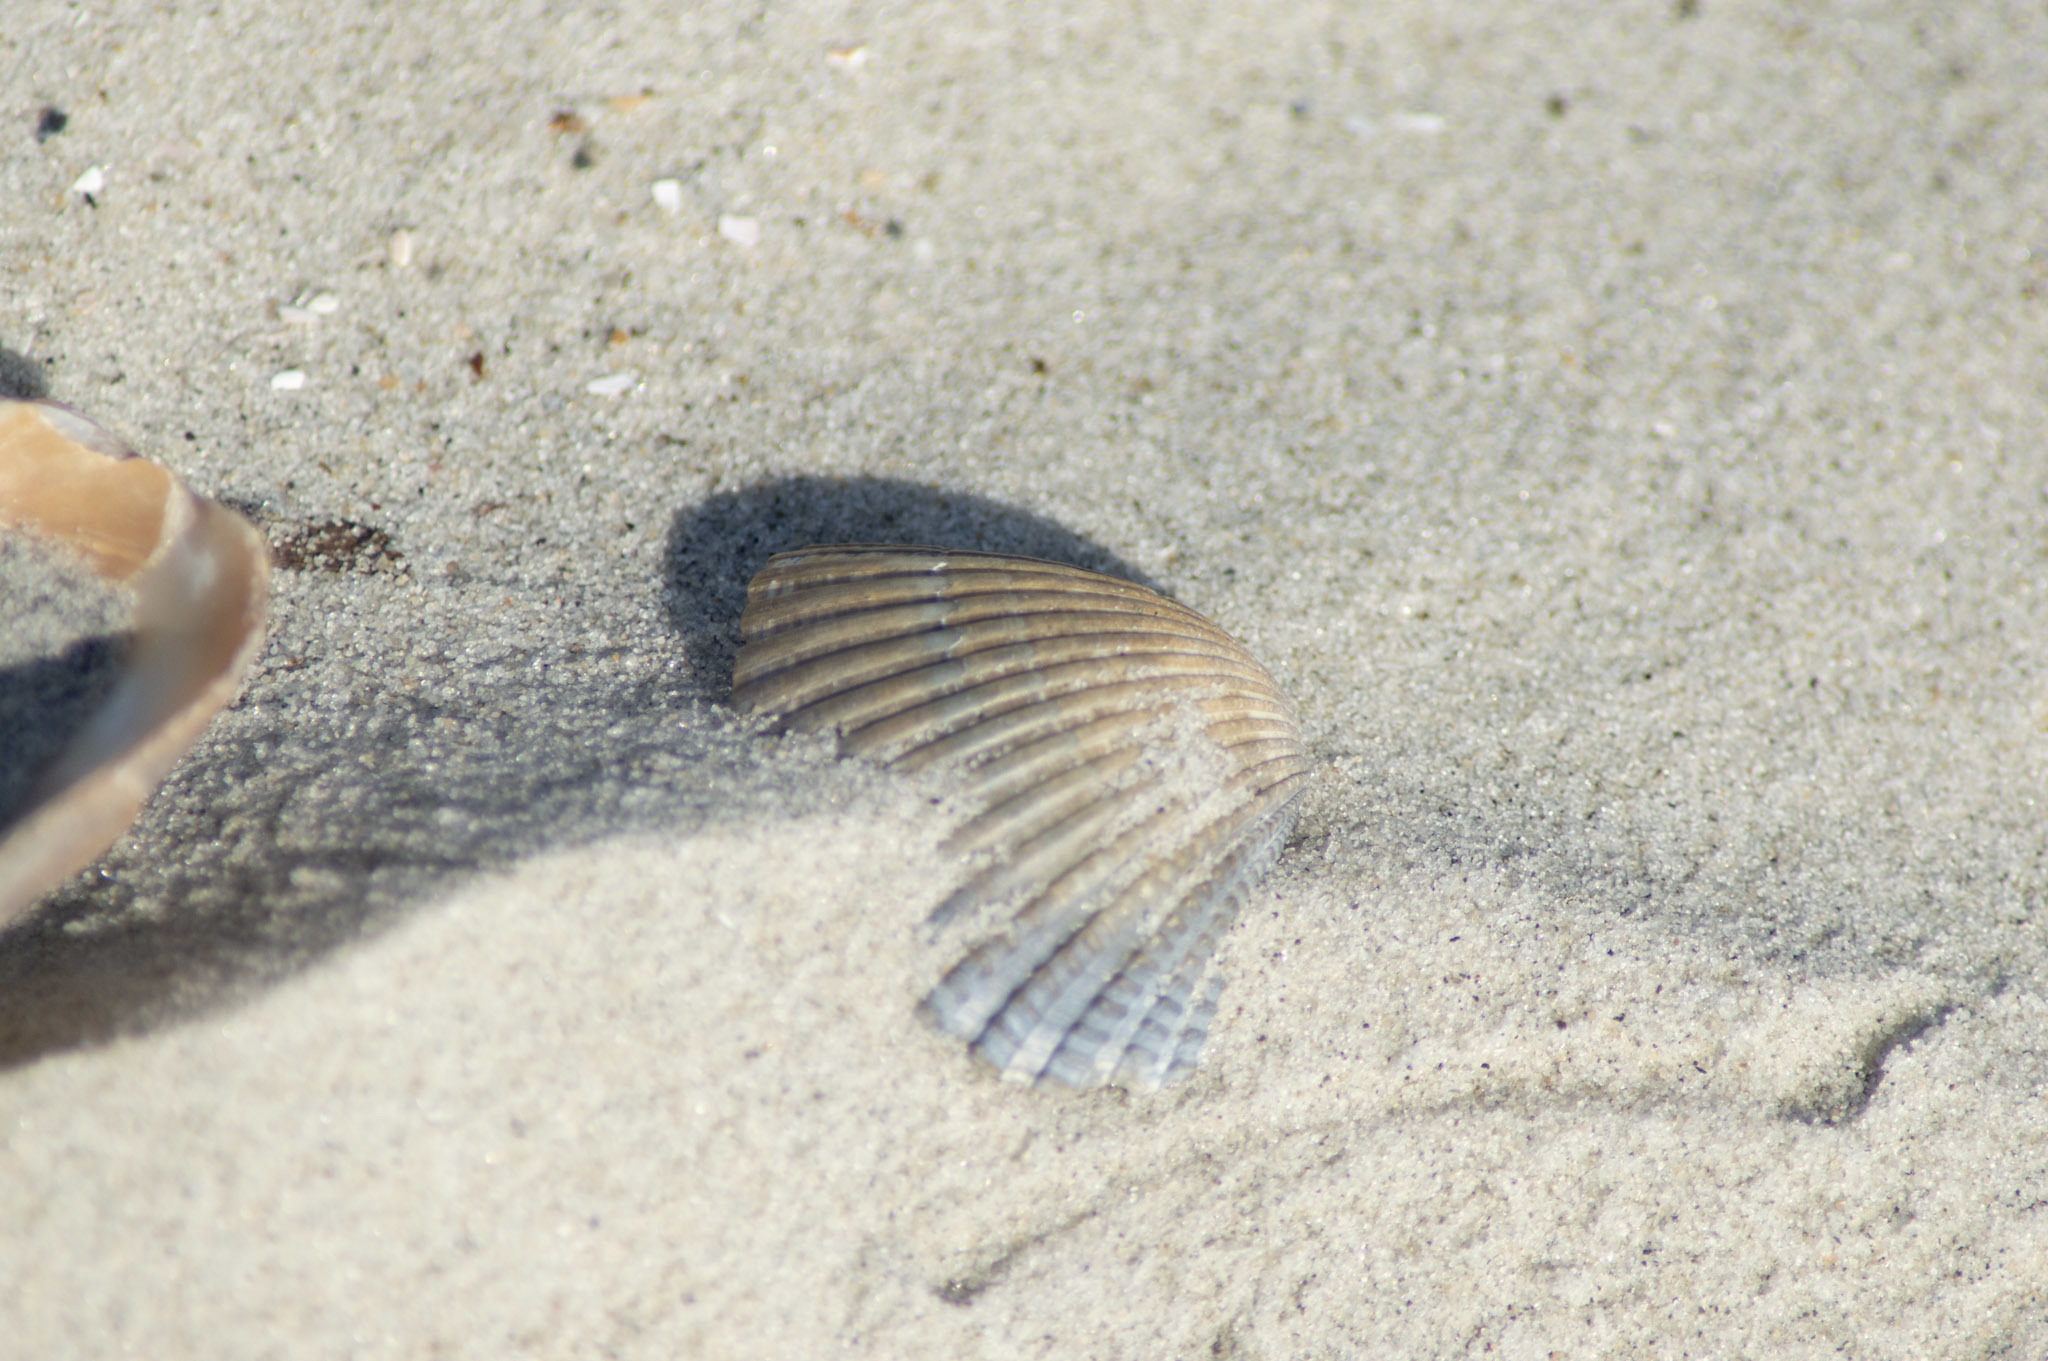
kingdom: Animalia
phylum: Mollusca
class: Bivalvia
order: Arcida
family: Arcidae
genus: Anadara
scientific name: Anadara brasiliana
